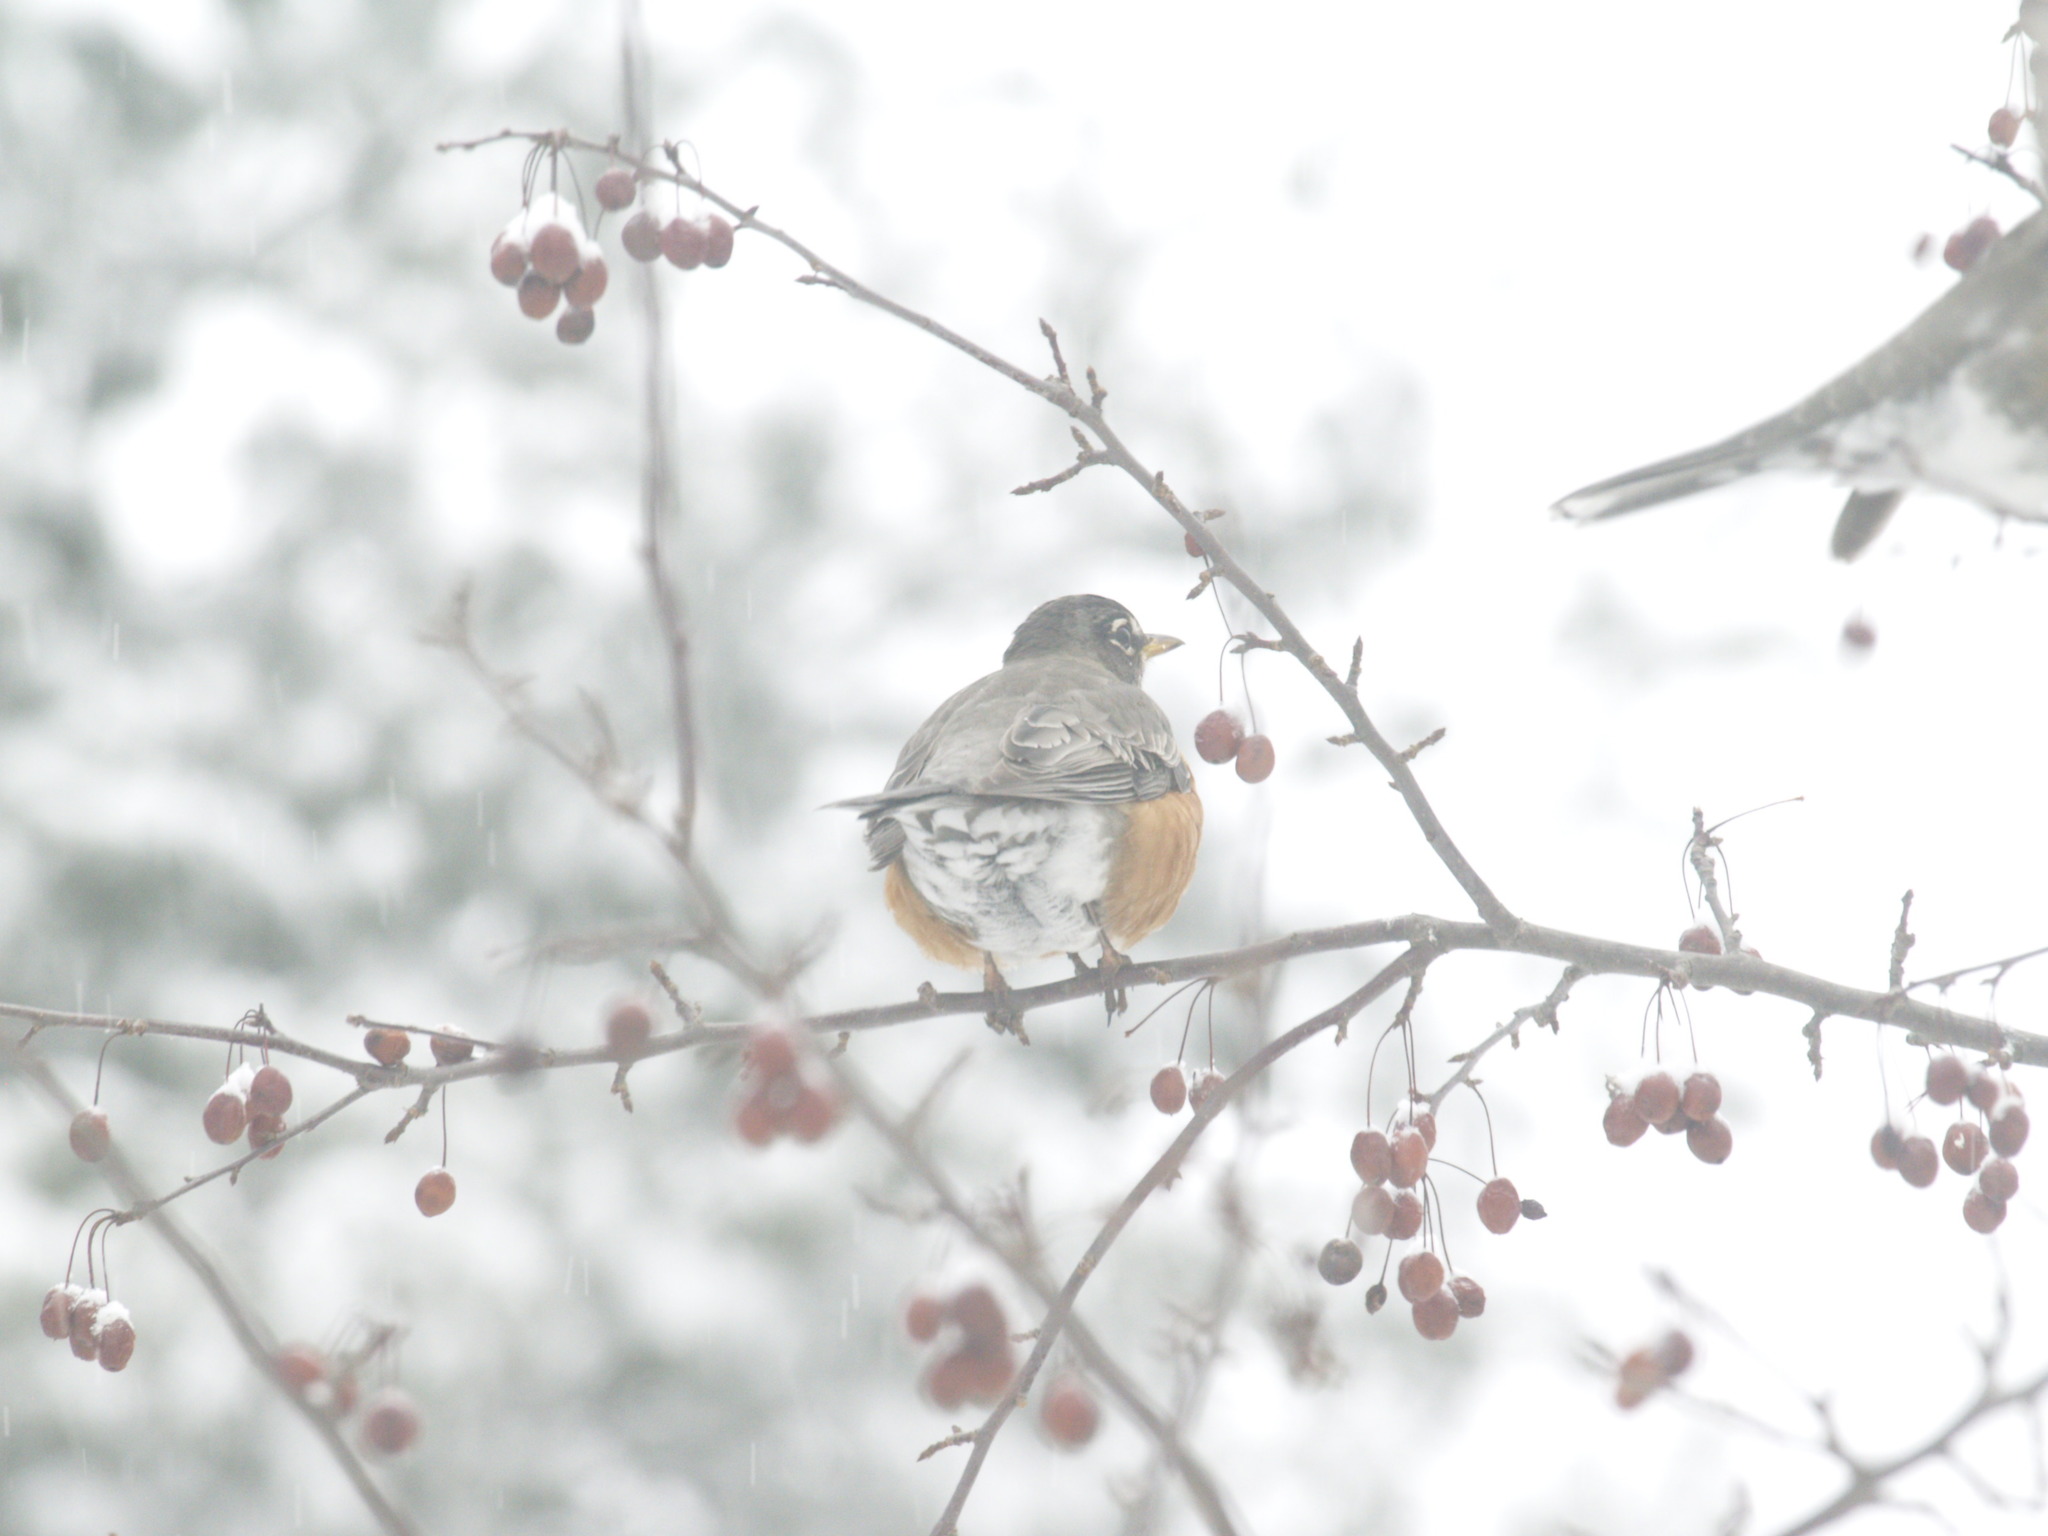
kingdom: Animalia
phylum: Chordata
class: Aves
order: Passeriformes
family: Turdidae
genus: Turdus
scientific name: Turdus migratorius
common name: American robin
